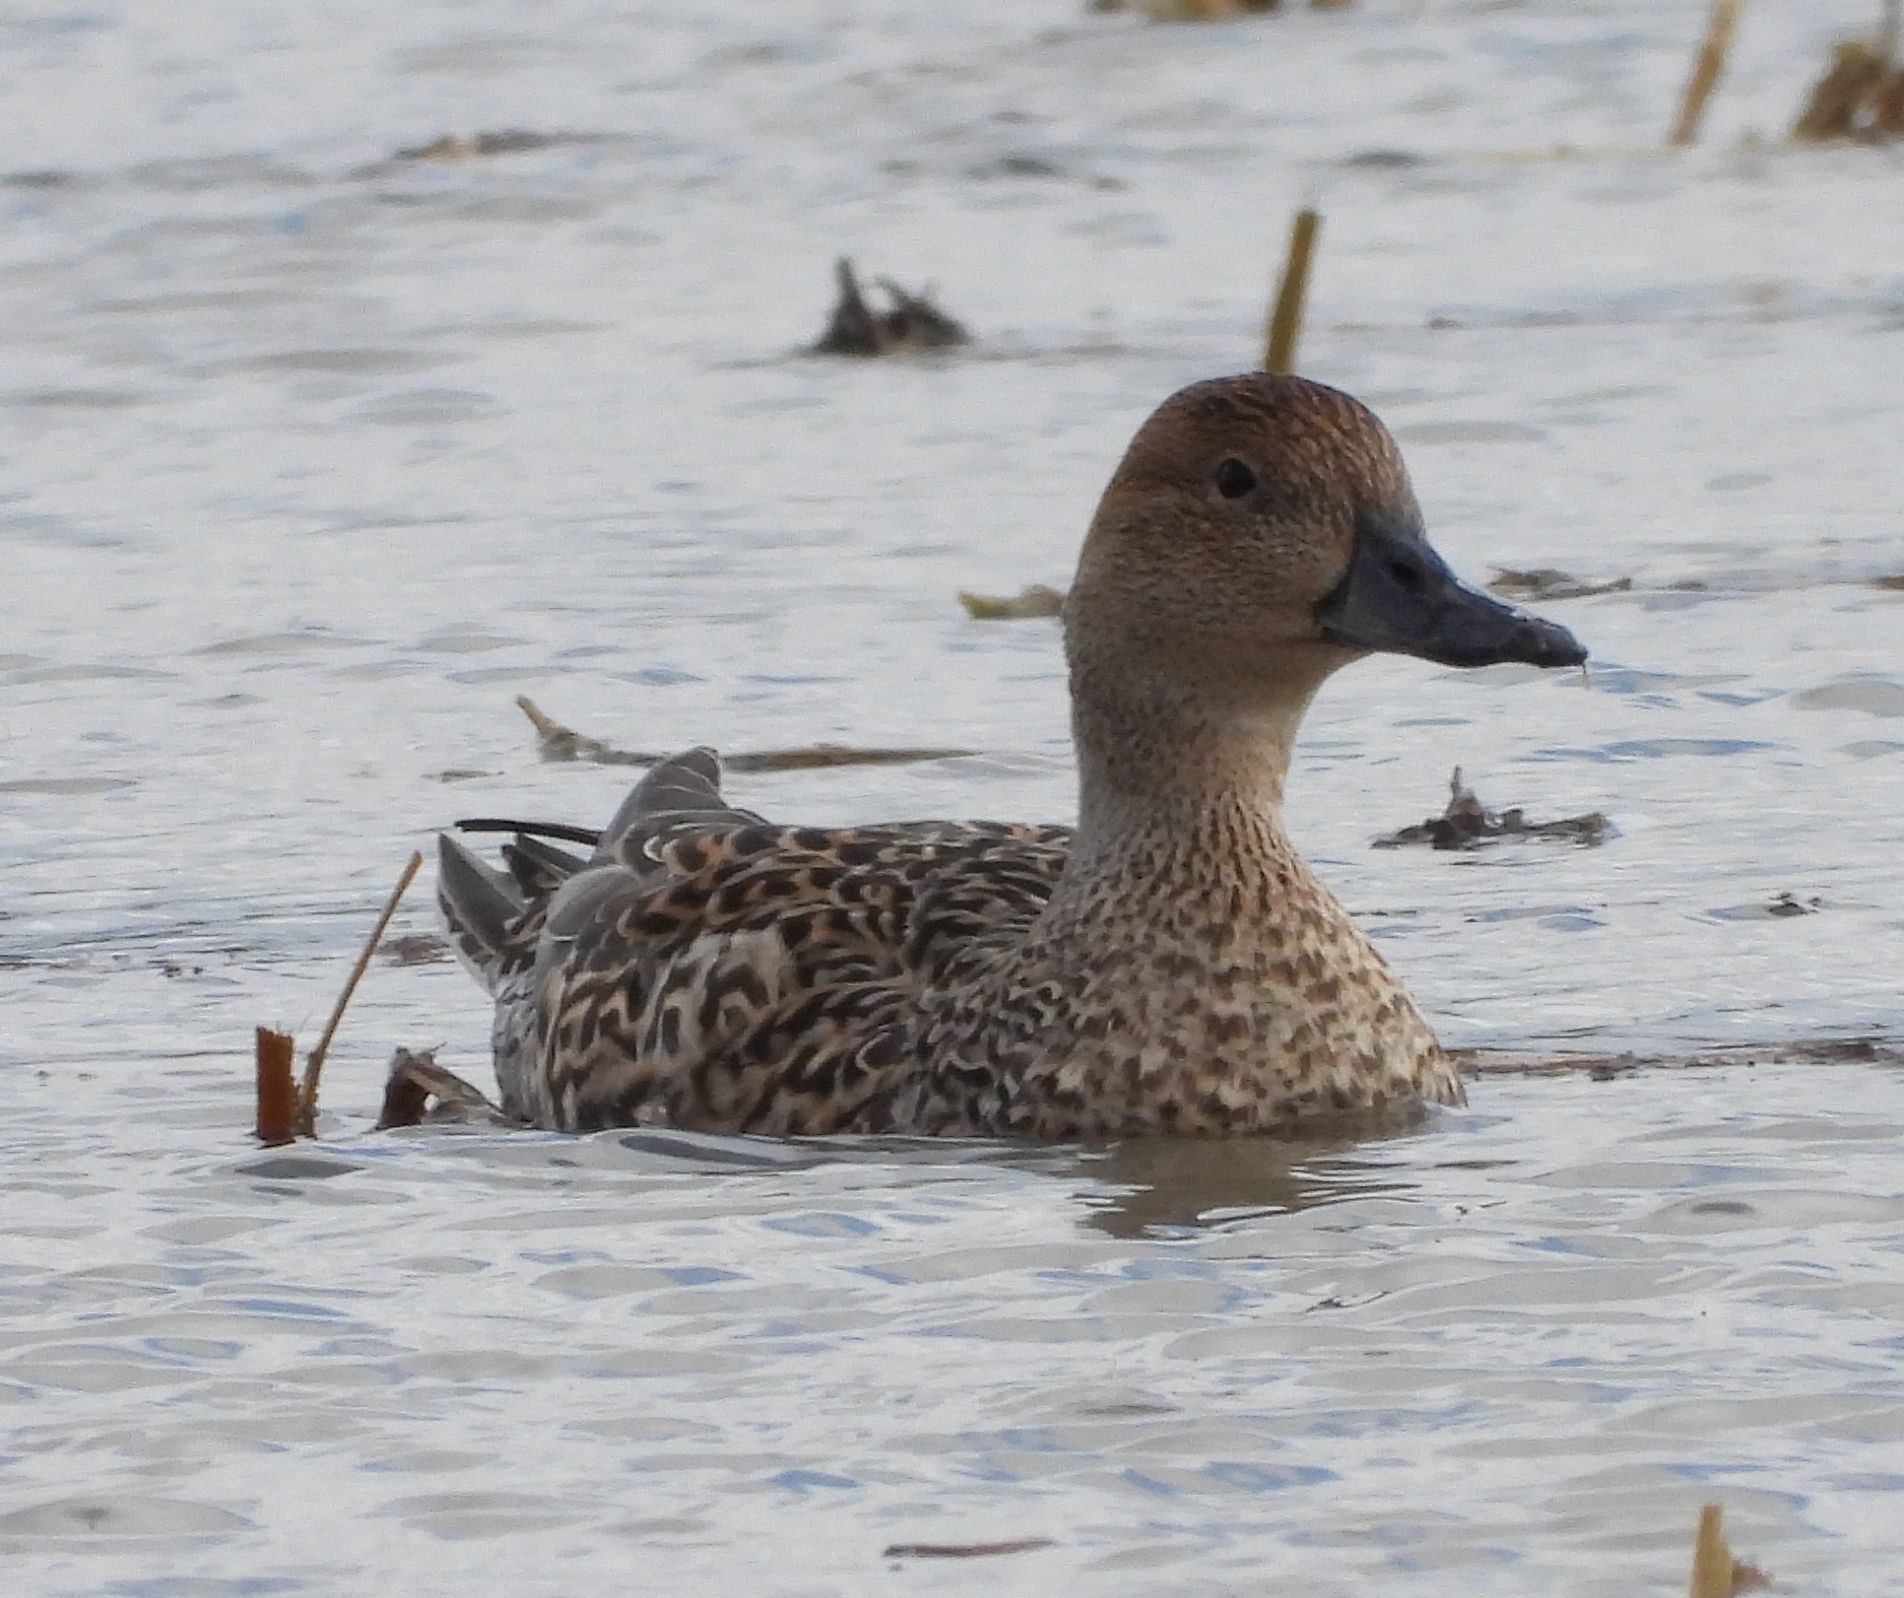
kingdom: Animalia
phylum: Chordata
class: Aves
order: Anseriformes
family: Anatidae
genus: Anas
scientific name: Anas acuta
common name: Northern pintail
